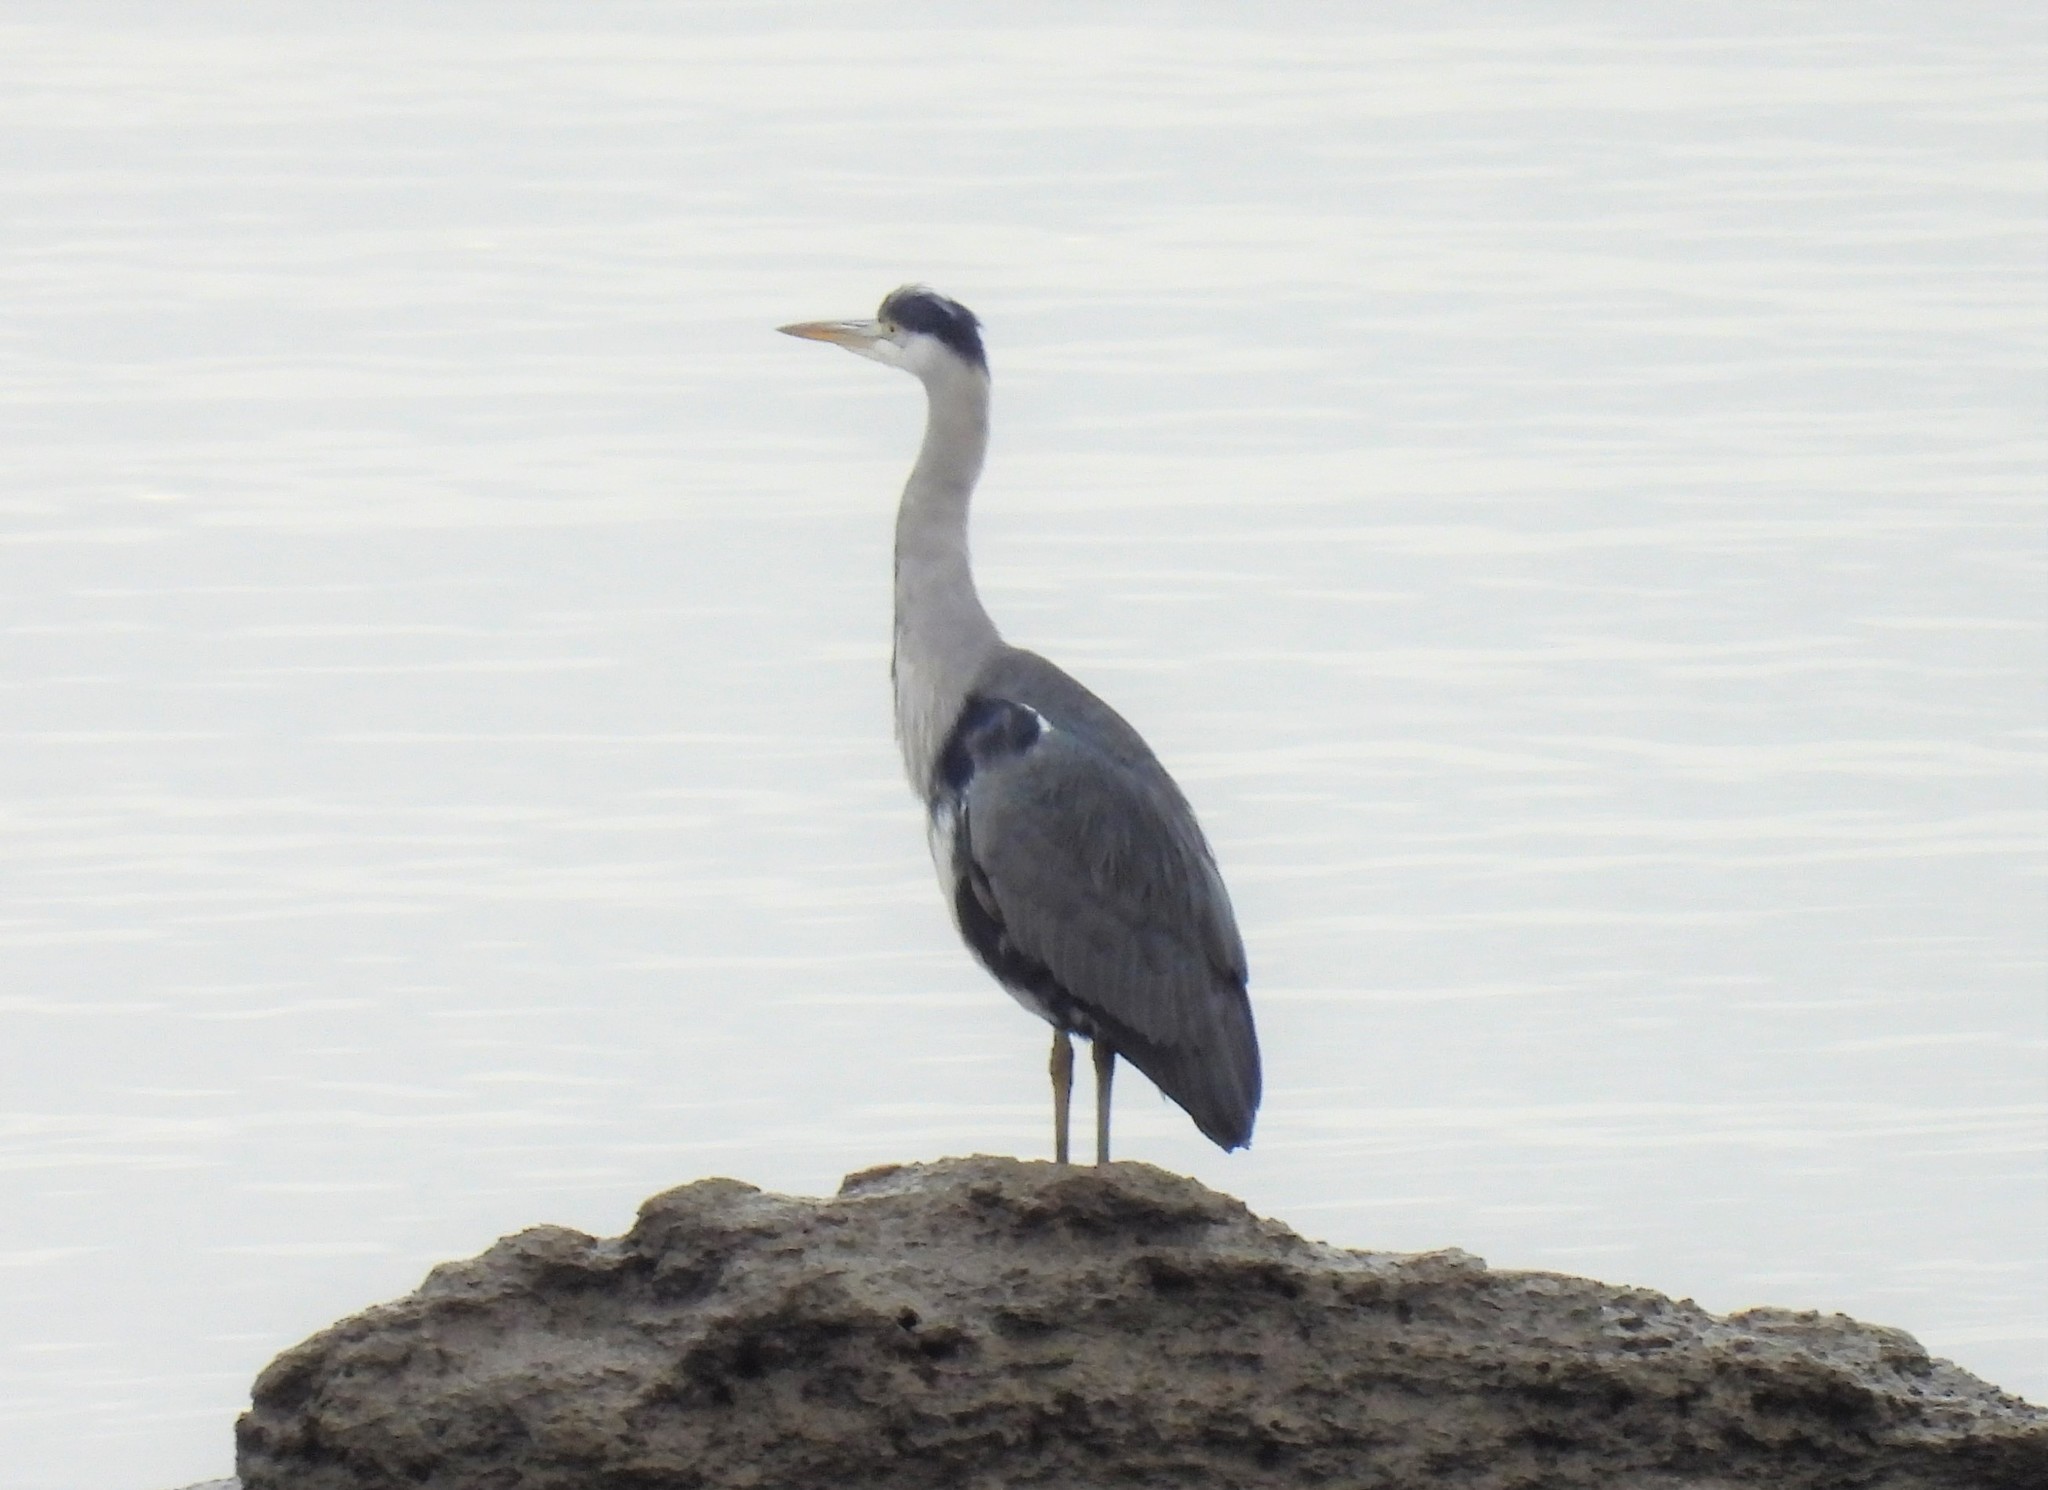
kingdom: Animalia
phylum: Chordata
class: Aves
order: Pelecaniformes
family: Ardeidae
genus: Ardea
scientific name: Ardea cinerea
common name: Grey heron
